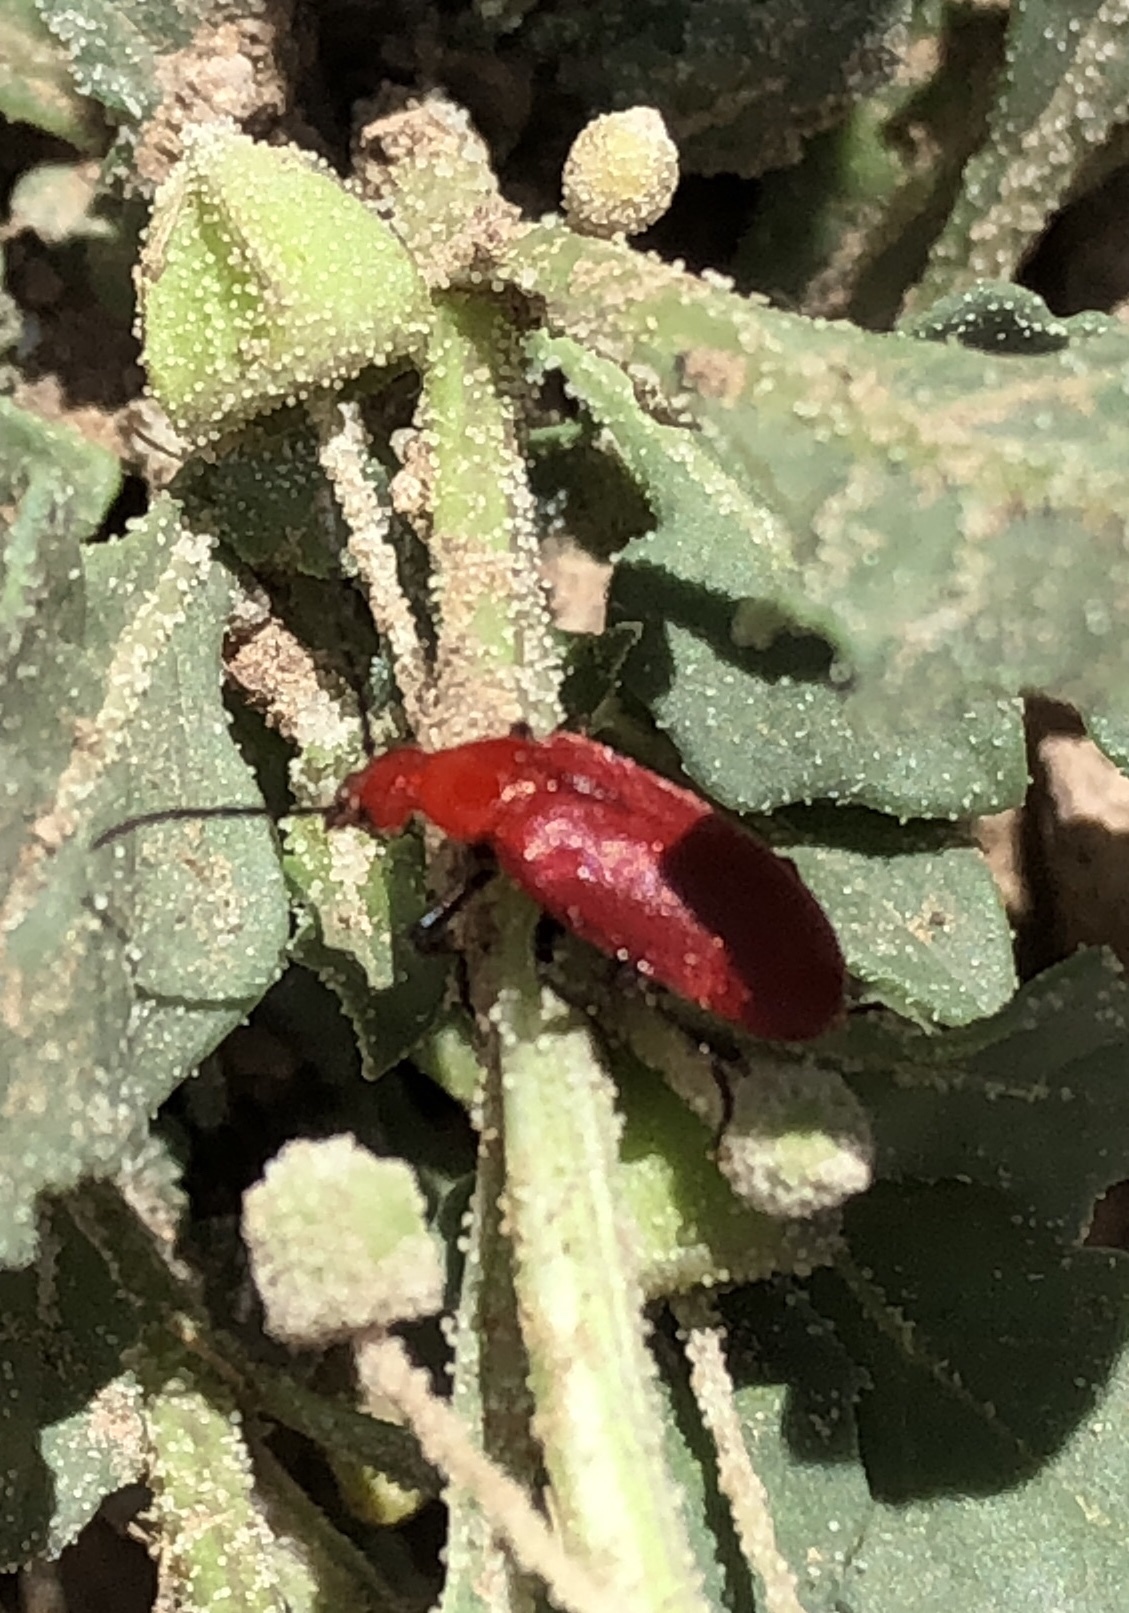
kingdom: Animalia
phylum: Arthropoda
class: Insecta
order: Coleoptera
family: Meloidae
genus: Rhyphonemognatha
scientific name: Rhyphonemognatha rufa
